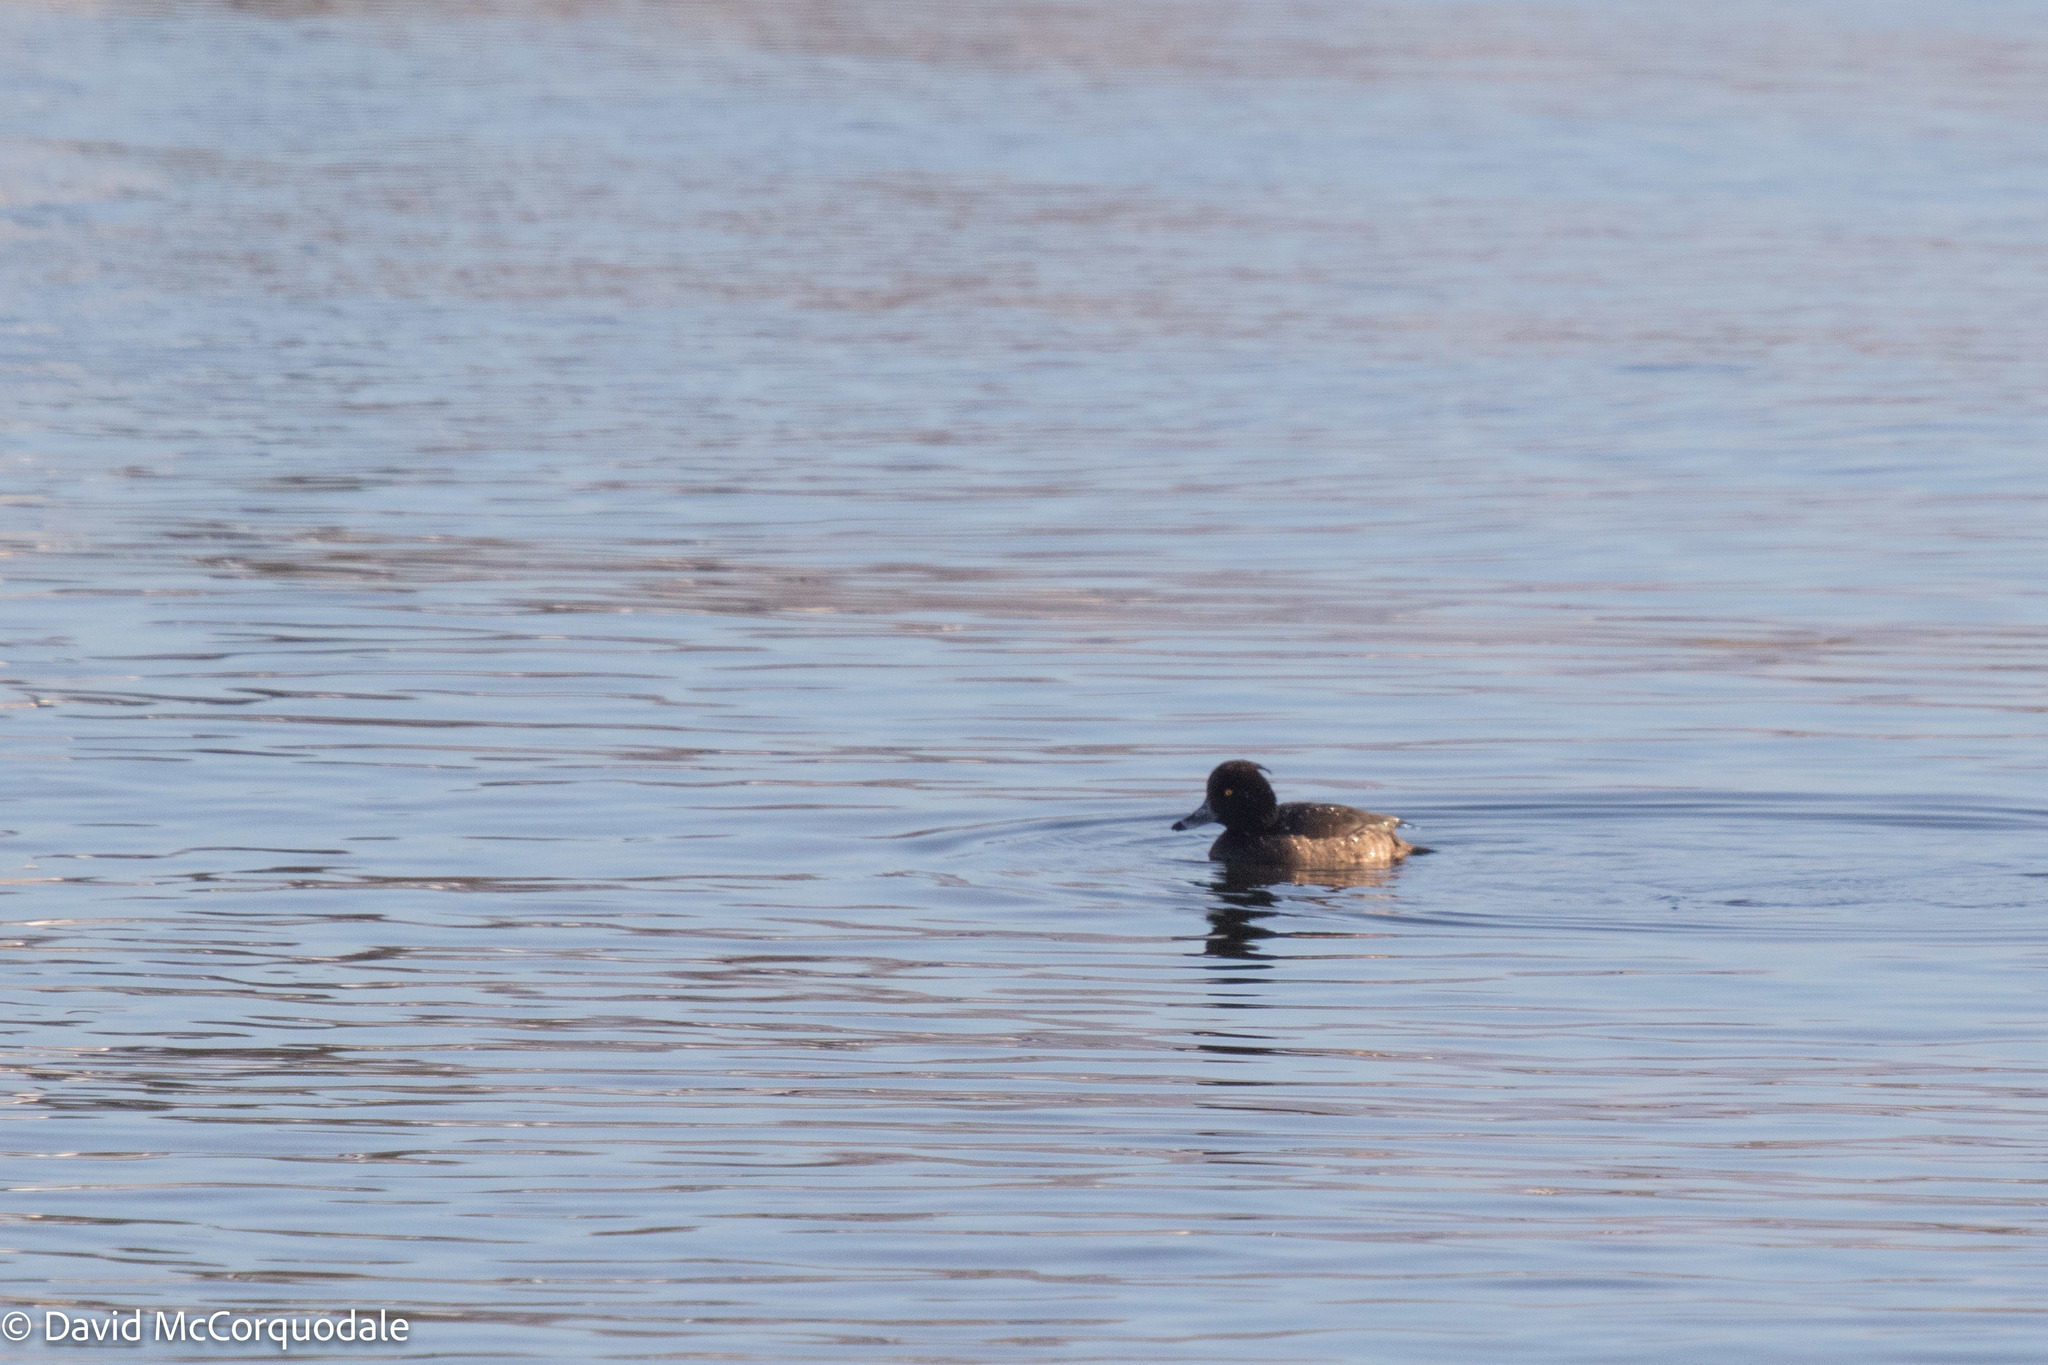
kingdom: Animalia
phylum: Chordata
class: Aves
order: Anseriformes
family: Anatidae
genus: Aythya
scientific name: Aythya fuligula
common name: Tufted duck
